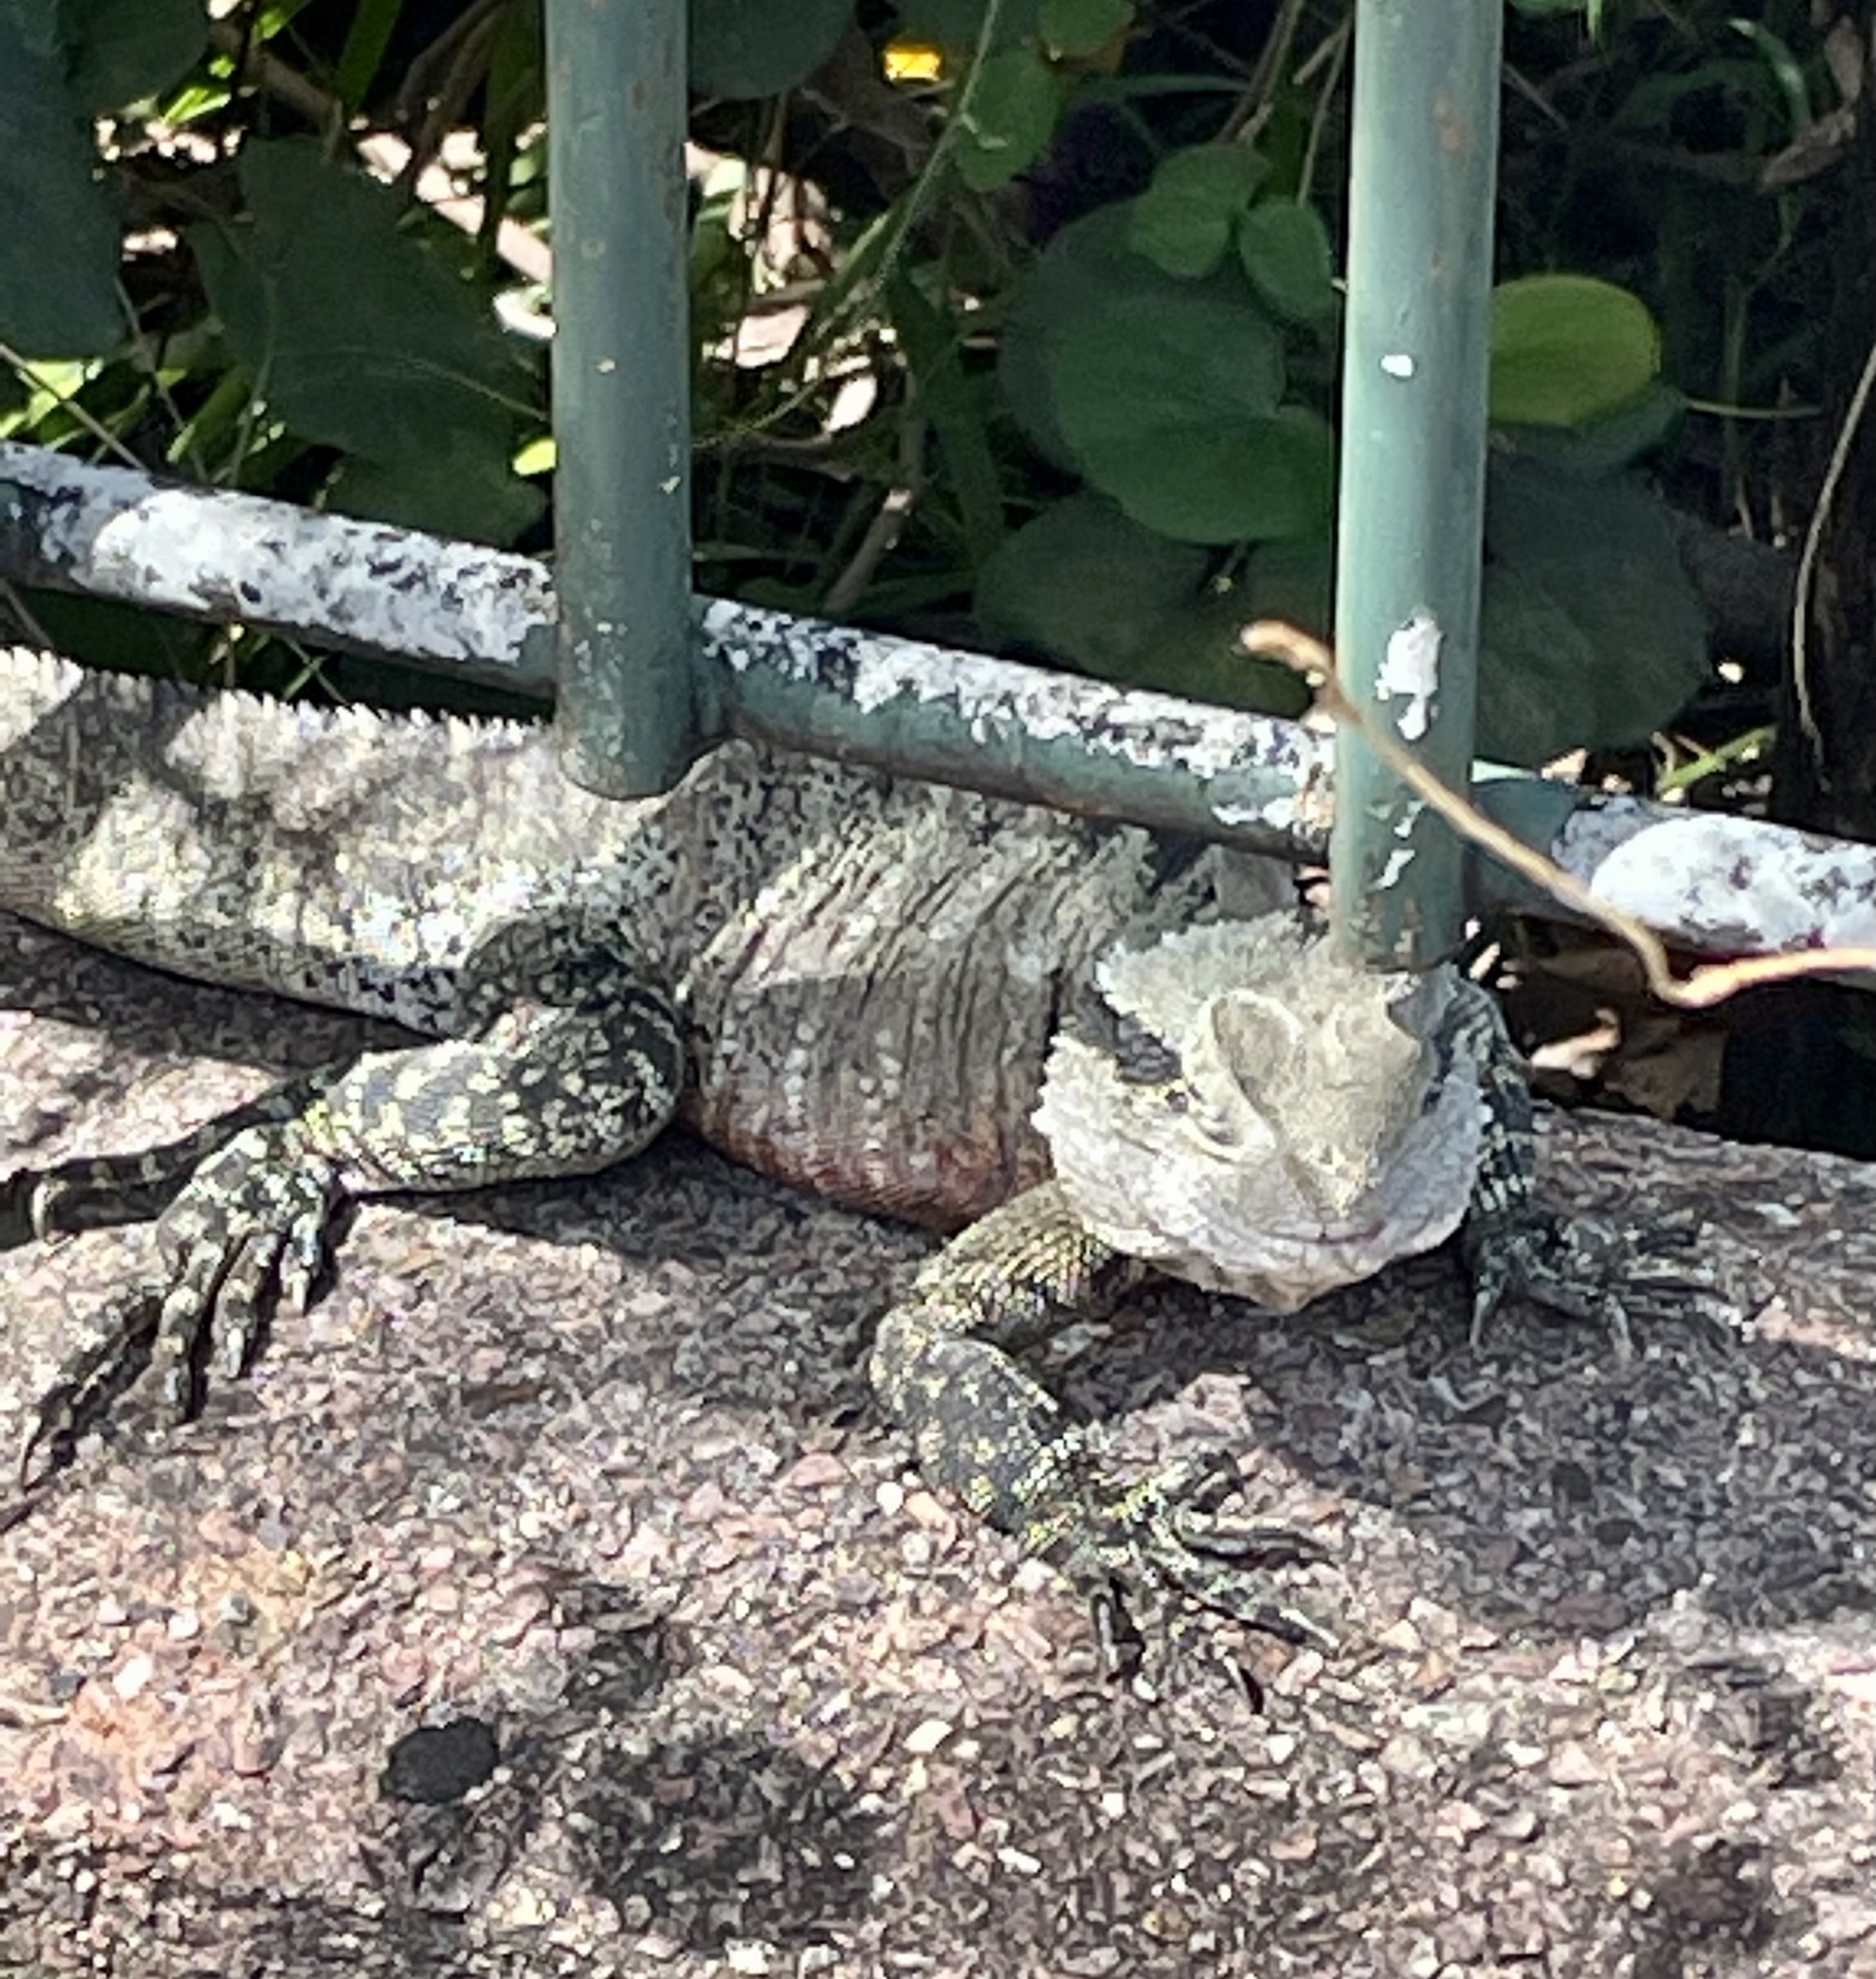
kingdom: Animalia
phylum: Chordata
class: Squamata
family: Agamidae
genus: Intellagama
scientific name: Intellagama lesueurii
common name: Eastern water dragon
